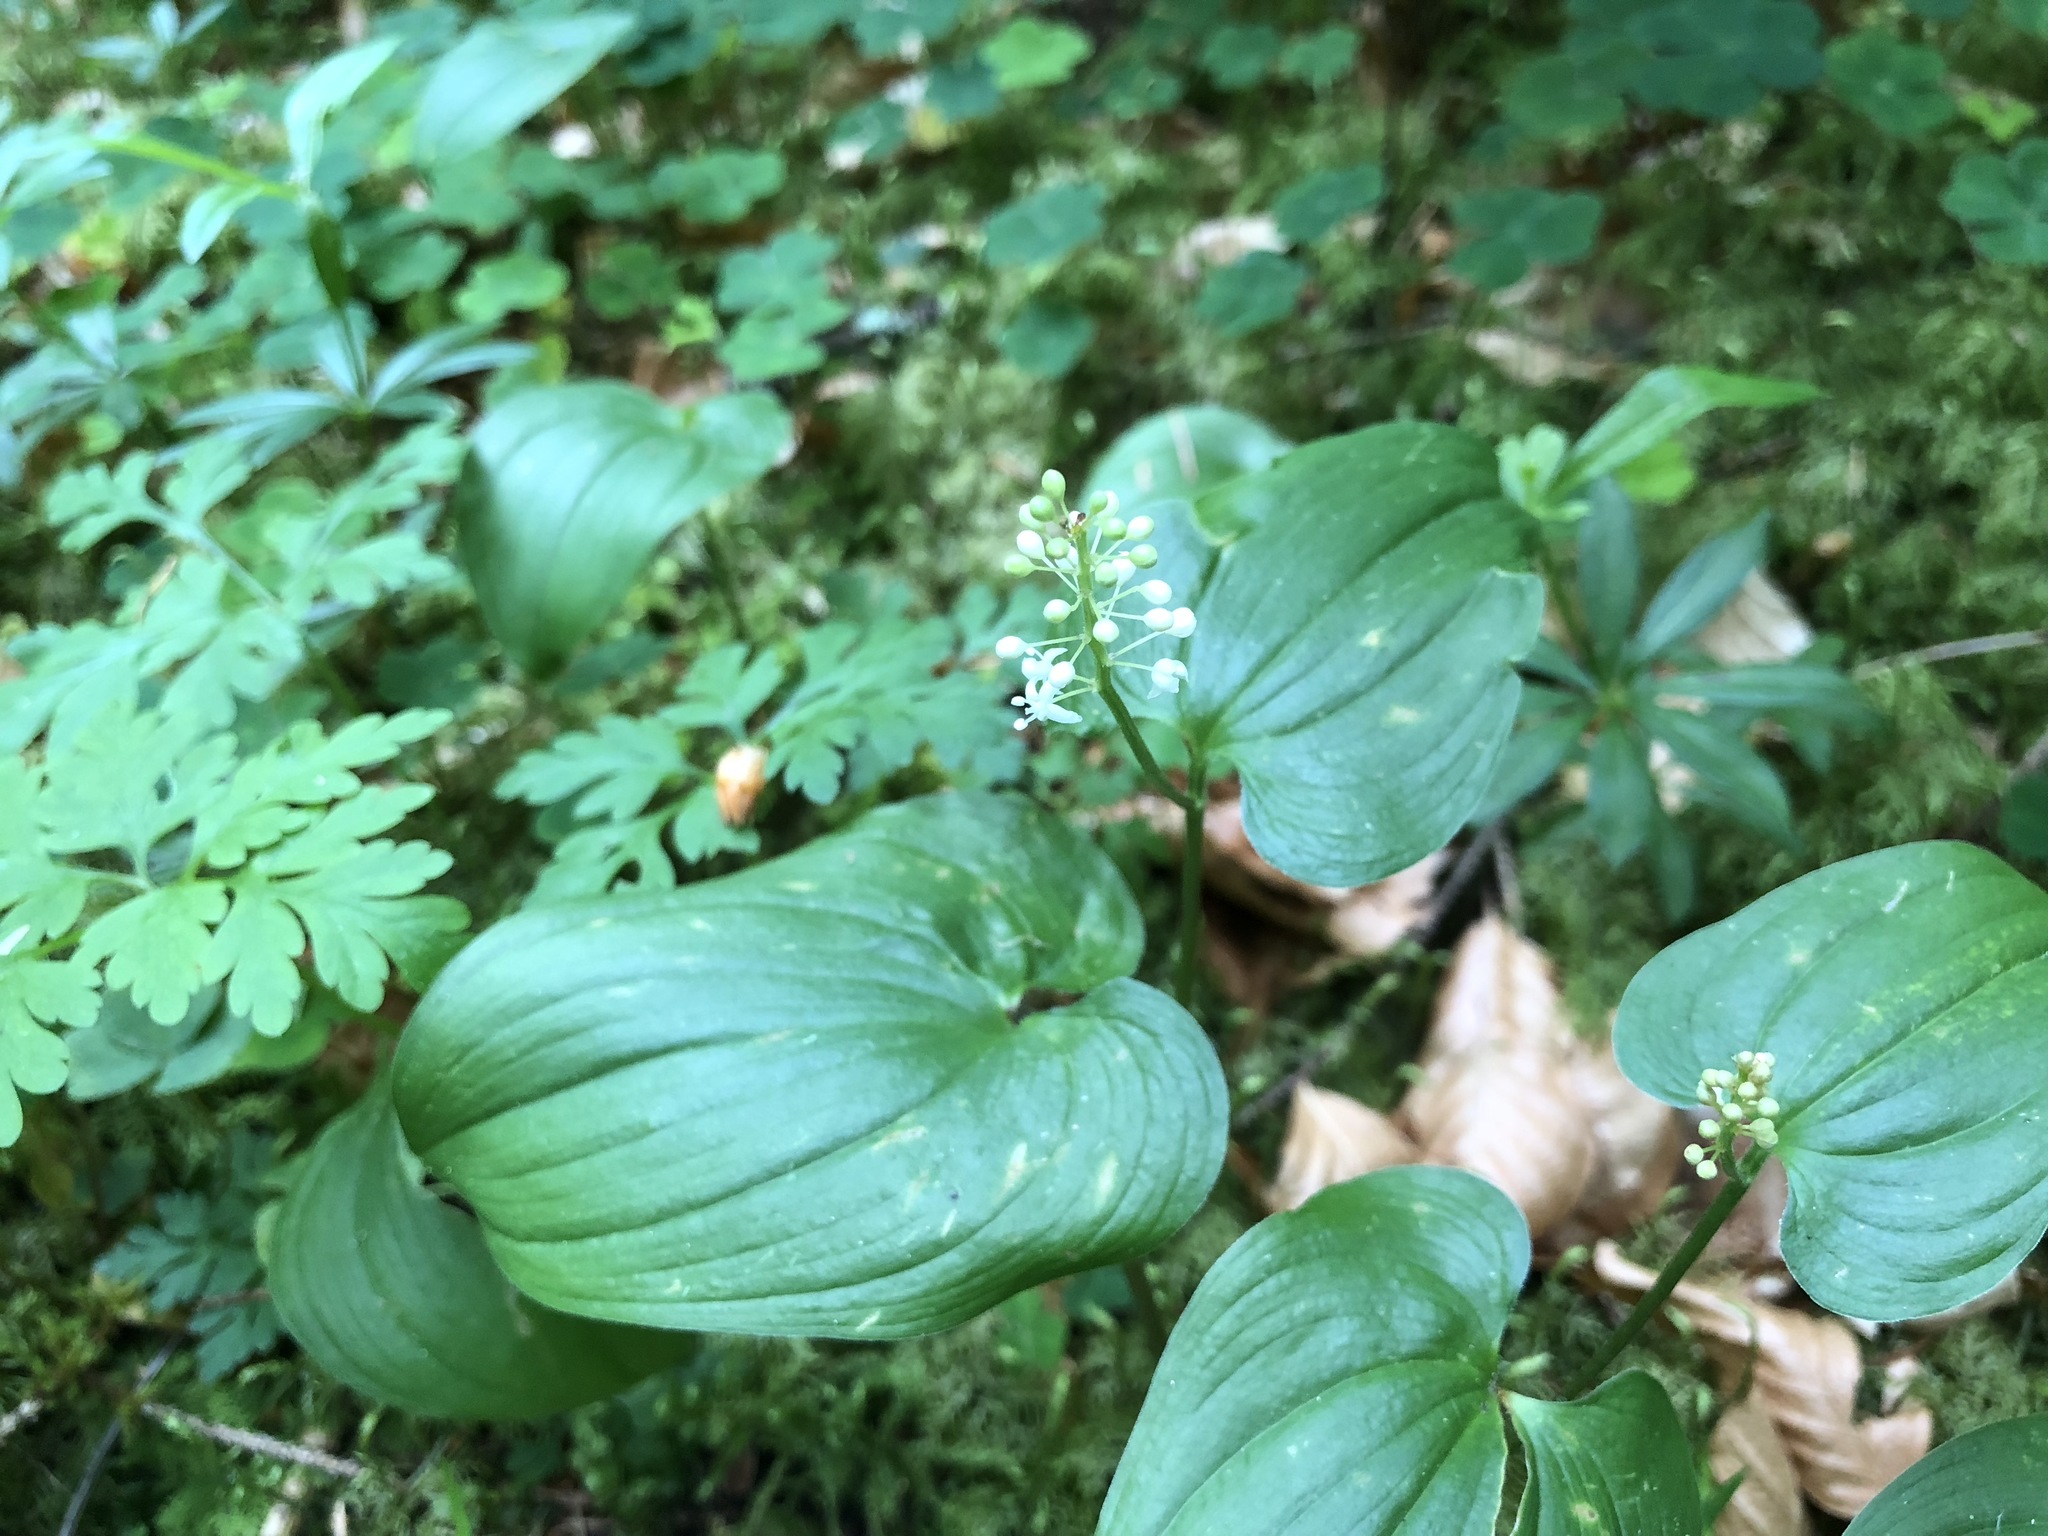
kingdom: Plantae
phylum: Tracheophyta
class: Liliopsida
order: Asparagales
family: Asparagaceae
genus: Maianthemum
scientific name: Maianthemum bifolium
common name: May lily
